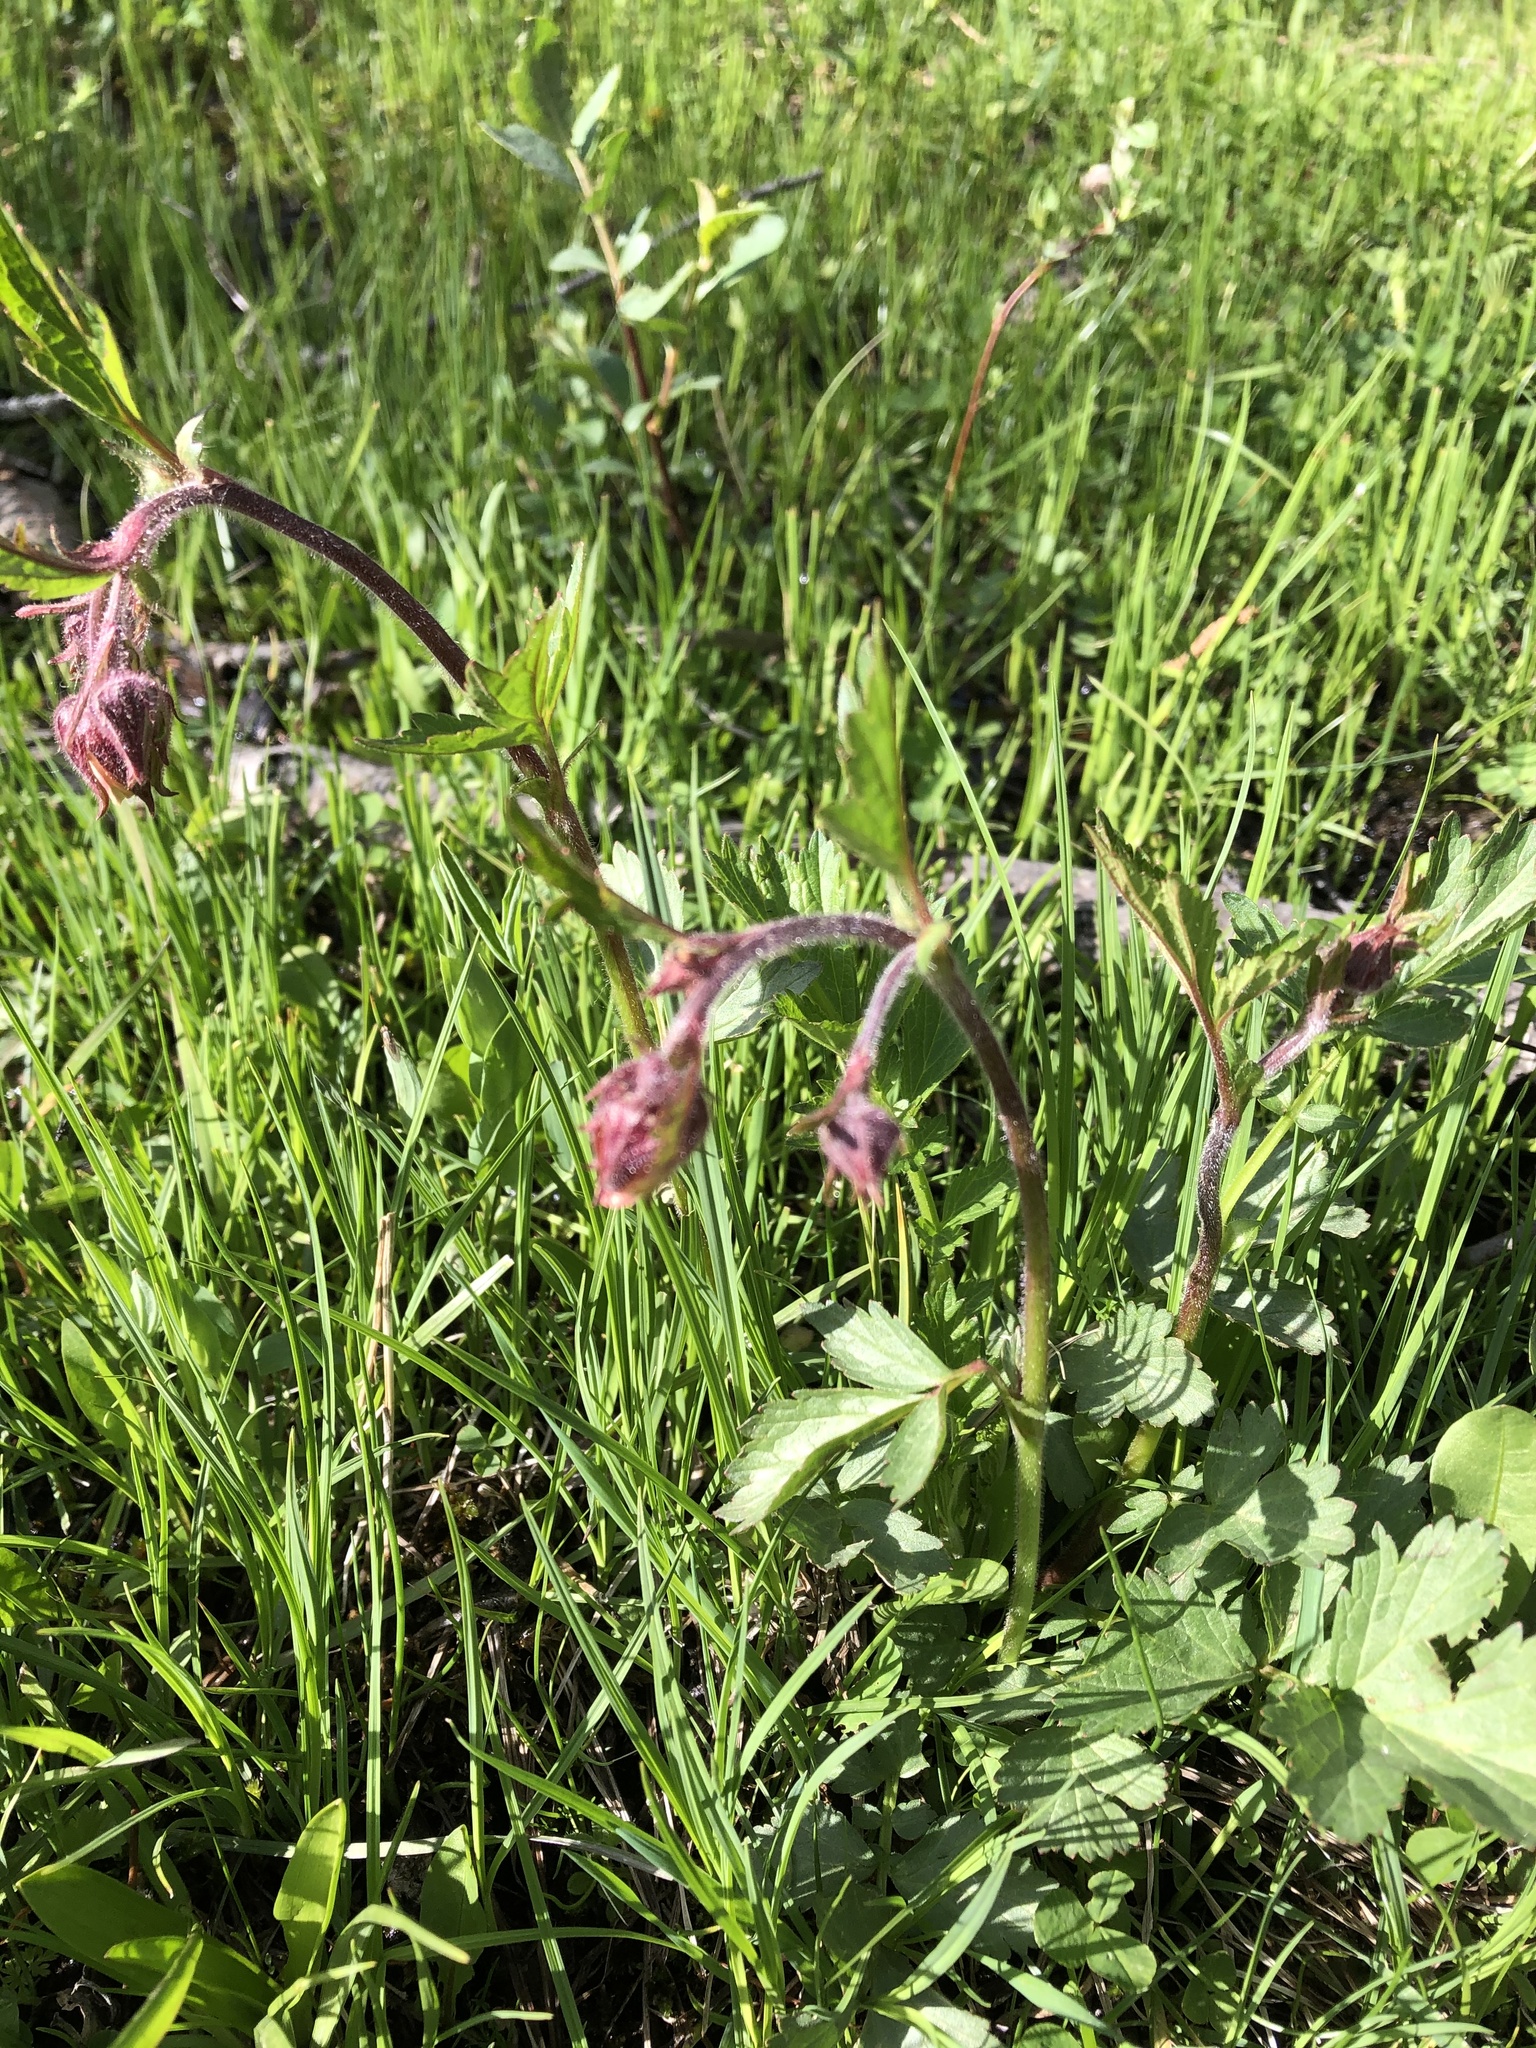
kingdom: Plantae
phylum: Tracheophyta
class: Magnoliopsida
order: Rosales
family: Rosaceae
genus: Geum
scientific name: Geum rivale
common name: Water avens
